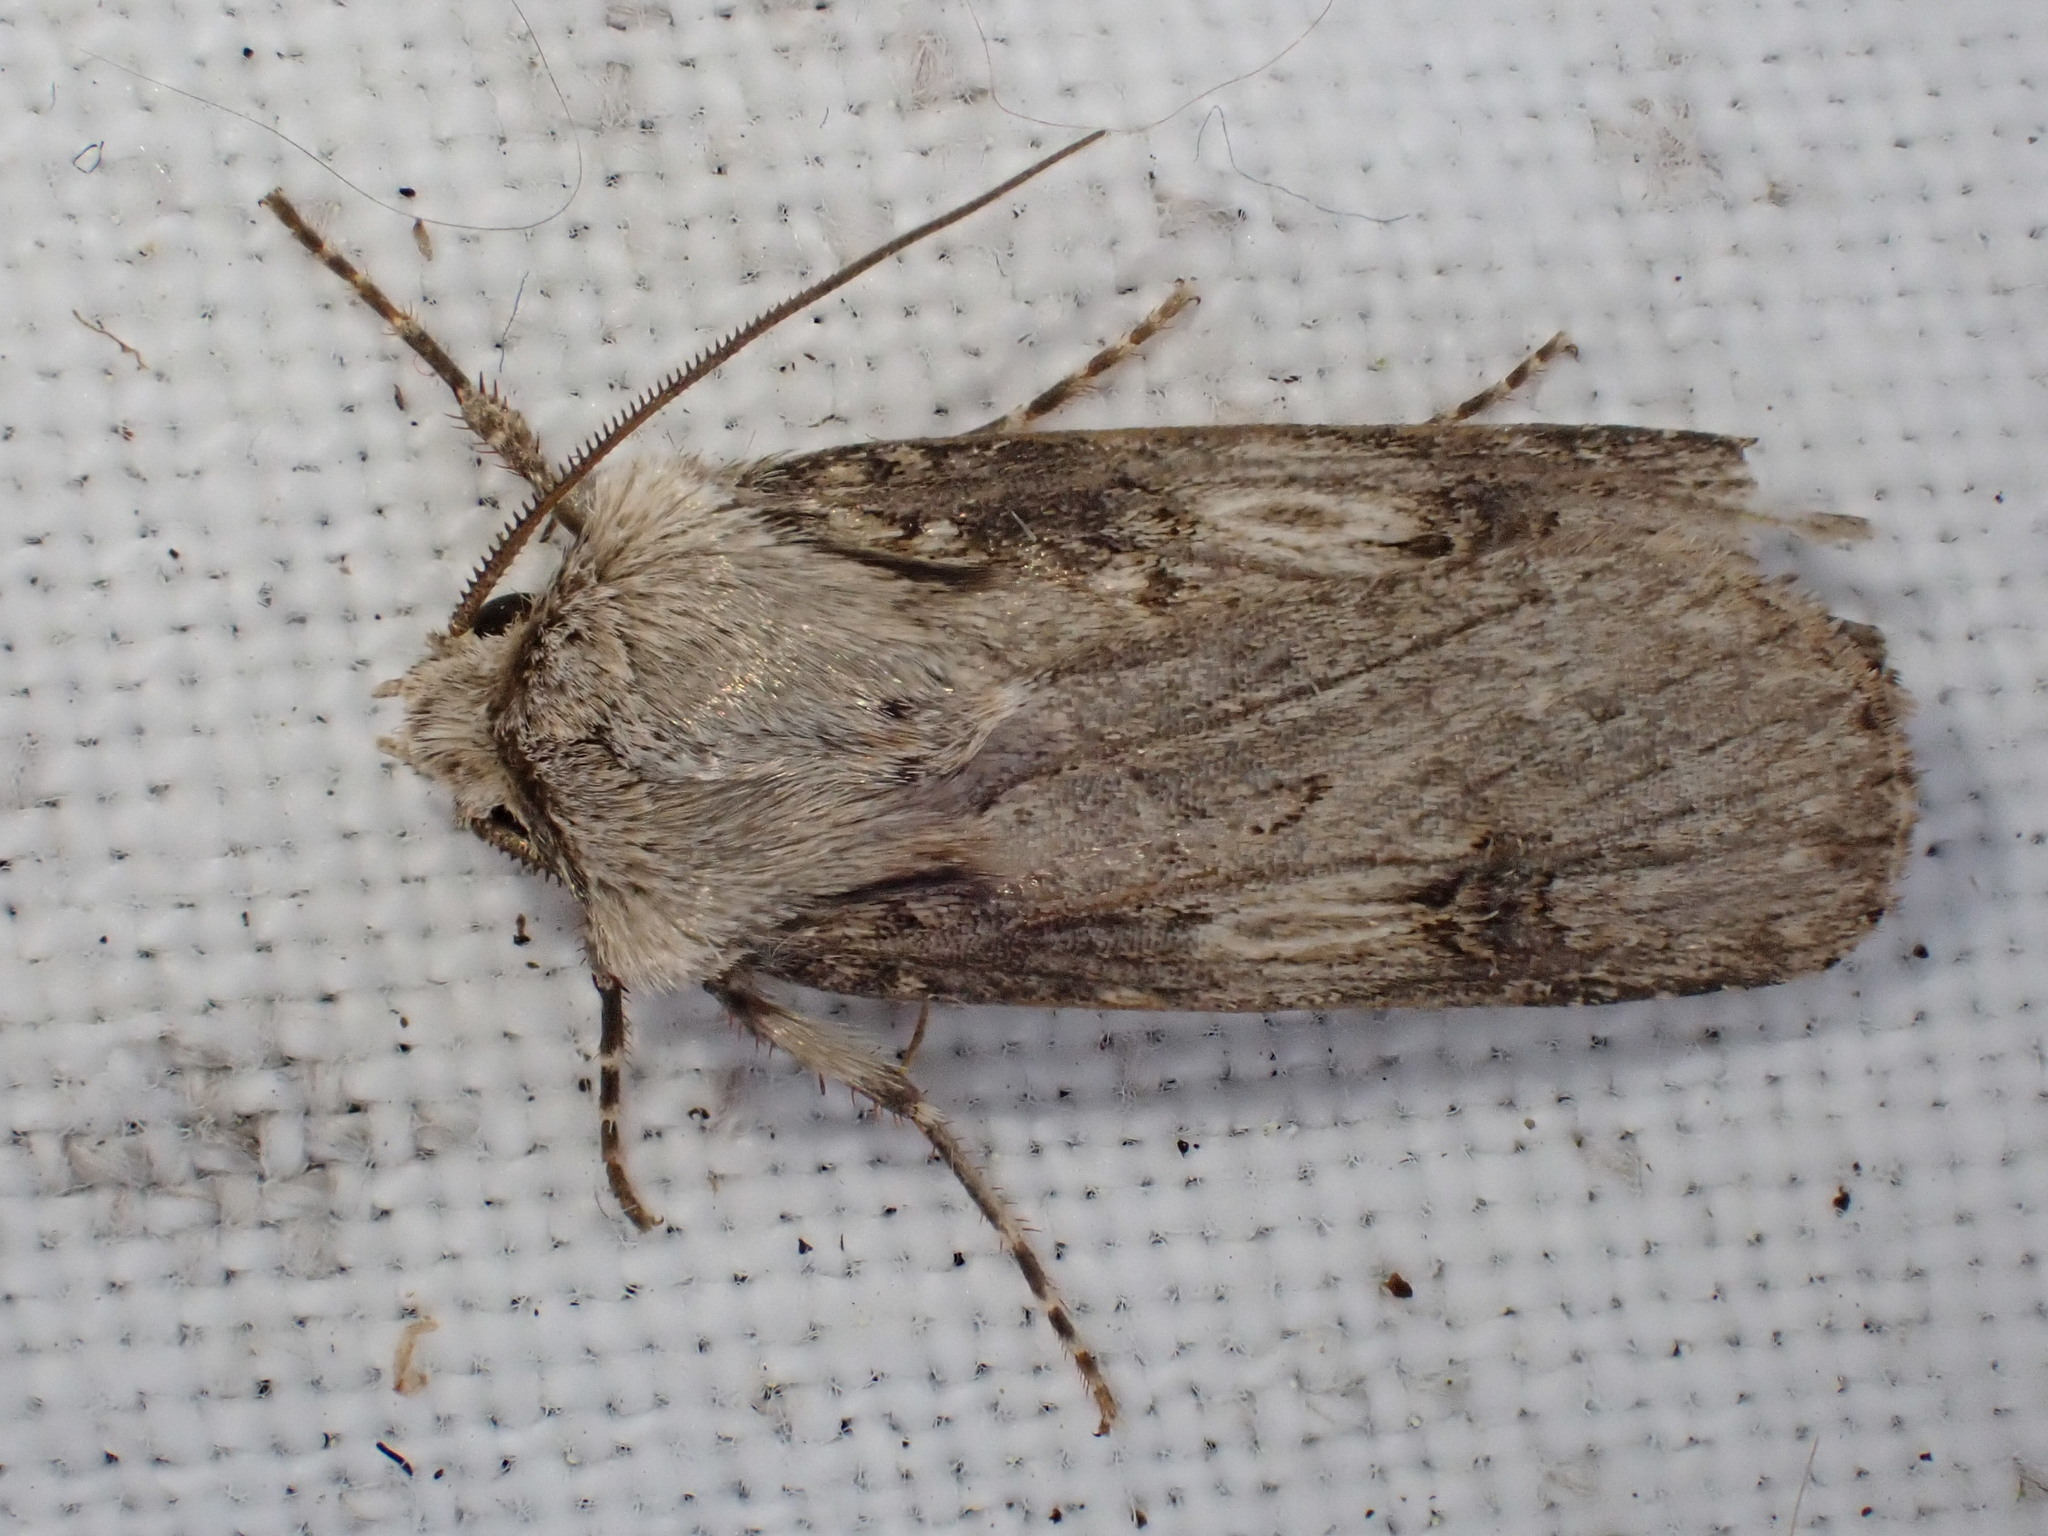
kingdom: Animalia
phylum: Arthropoda
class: Insecta
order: Lepidoptera
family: Noctuidae
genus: Agrotis
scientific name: Agrotis puta
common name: Shuttle-shaped dart
